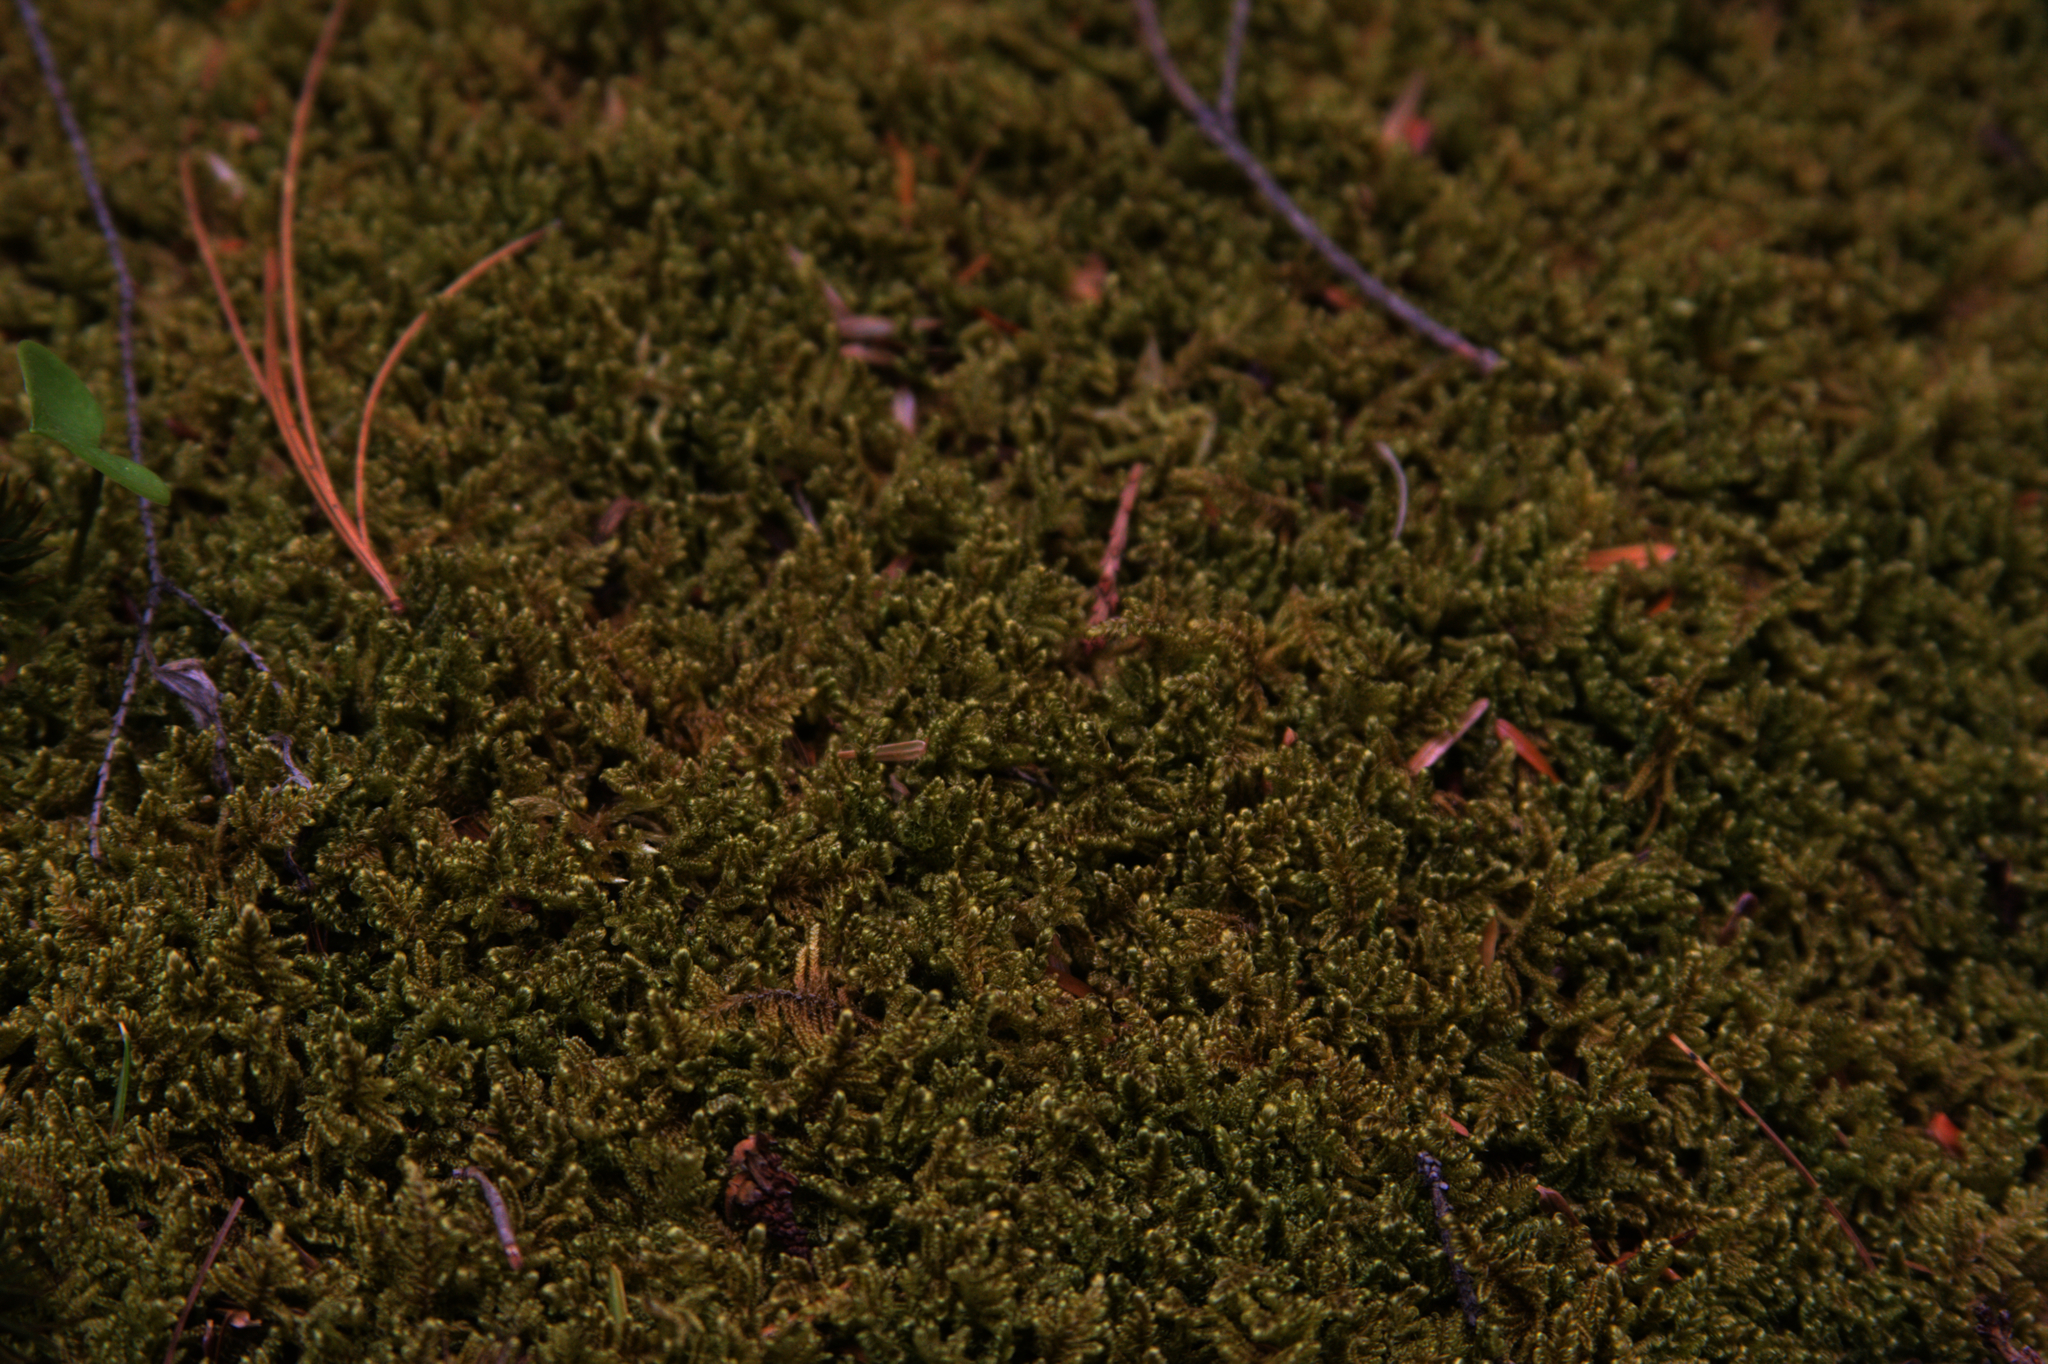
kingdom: Plantae
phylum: Bryophyta
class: Bryopsida
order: Hypnales
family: Callicladiaceae
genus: Callicladium
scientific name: Callicladium imponens
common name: Brocade moss
